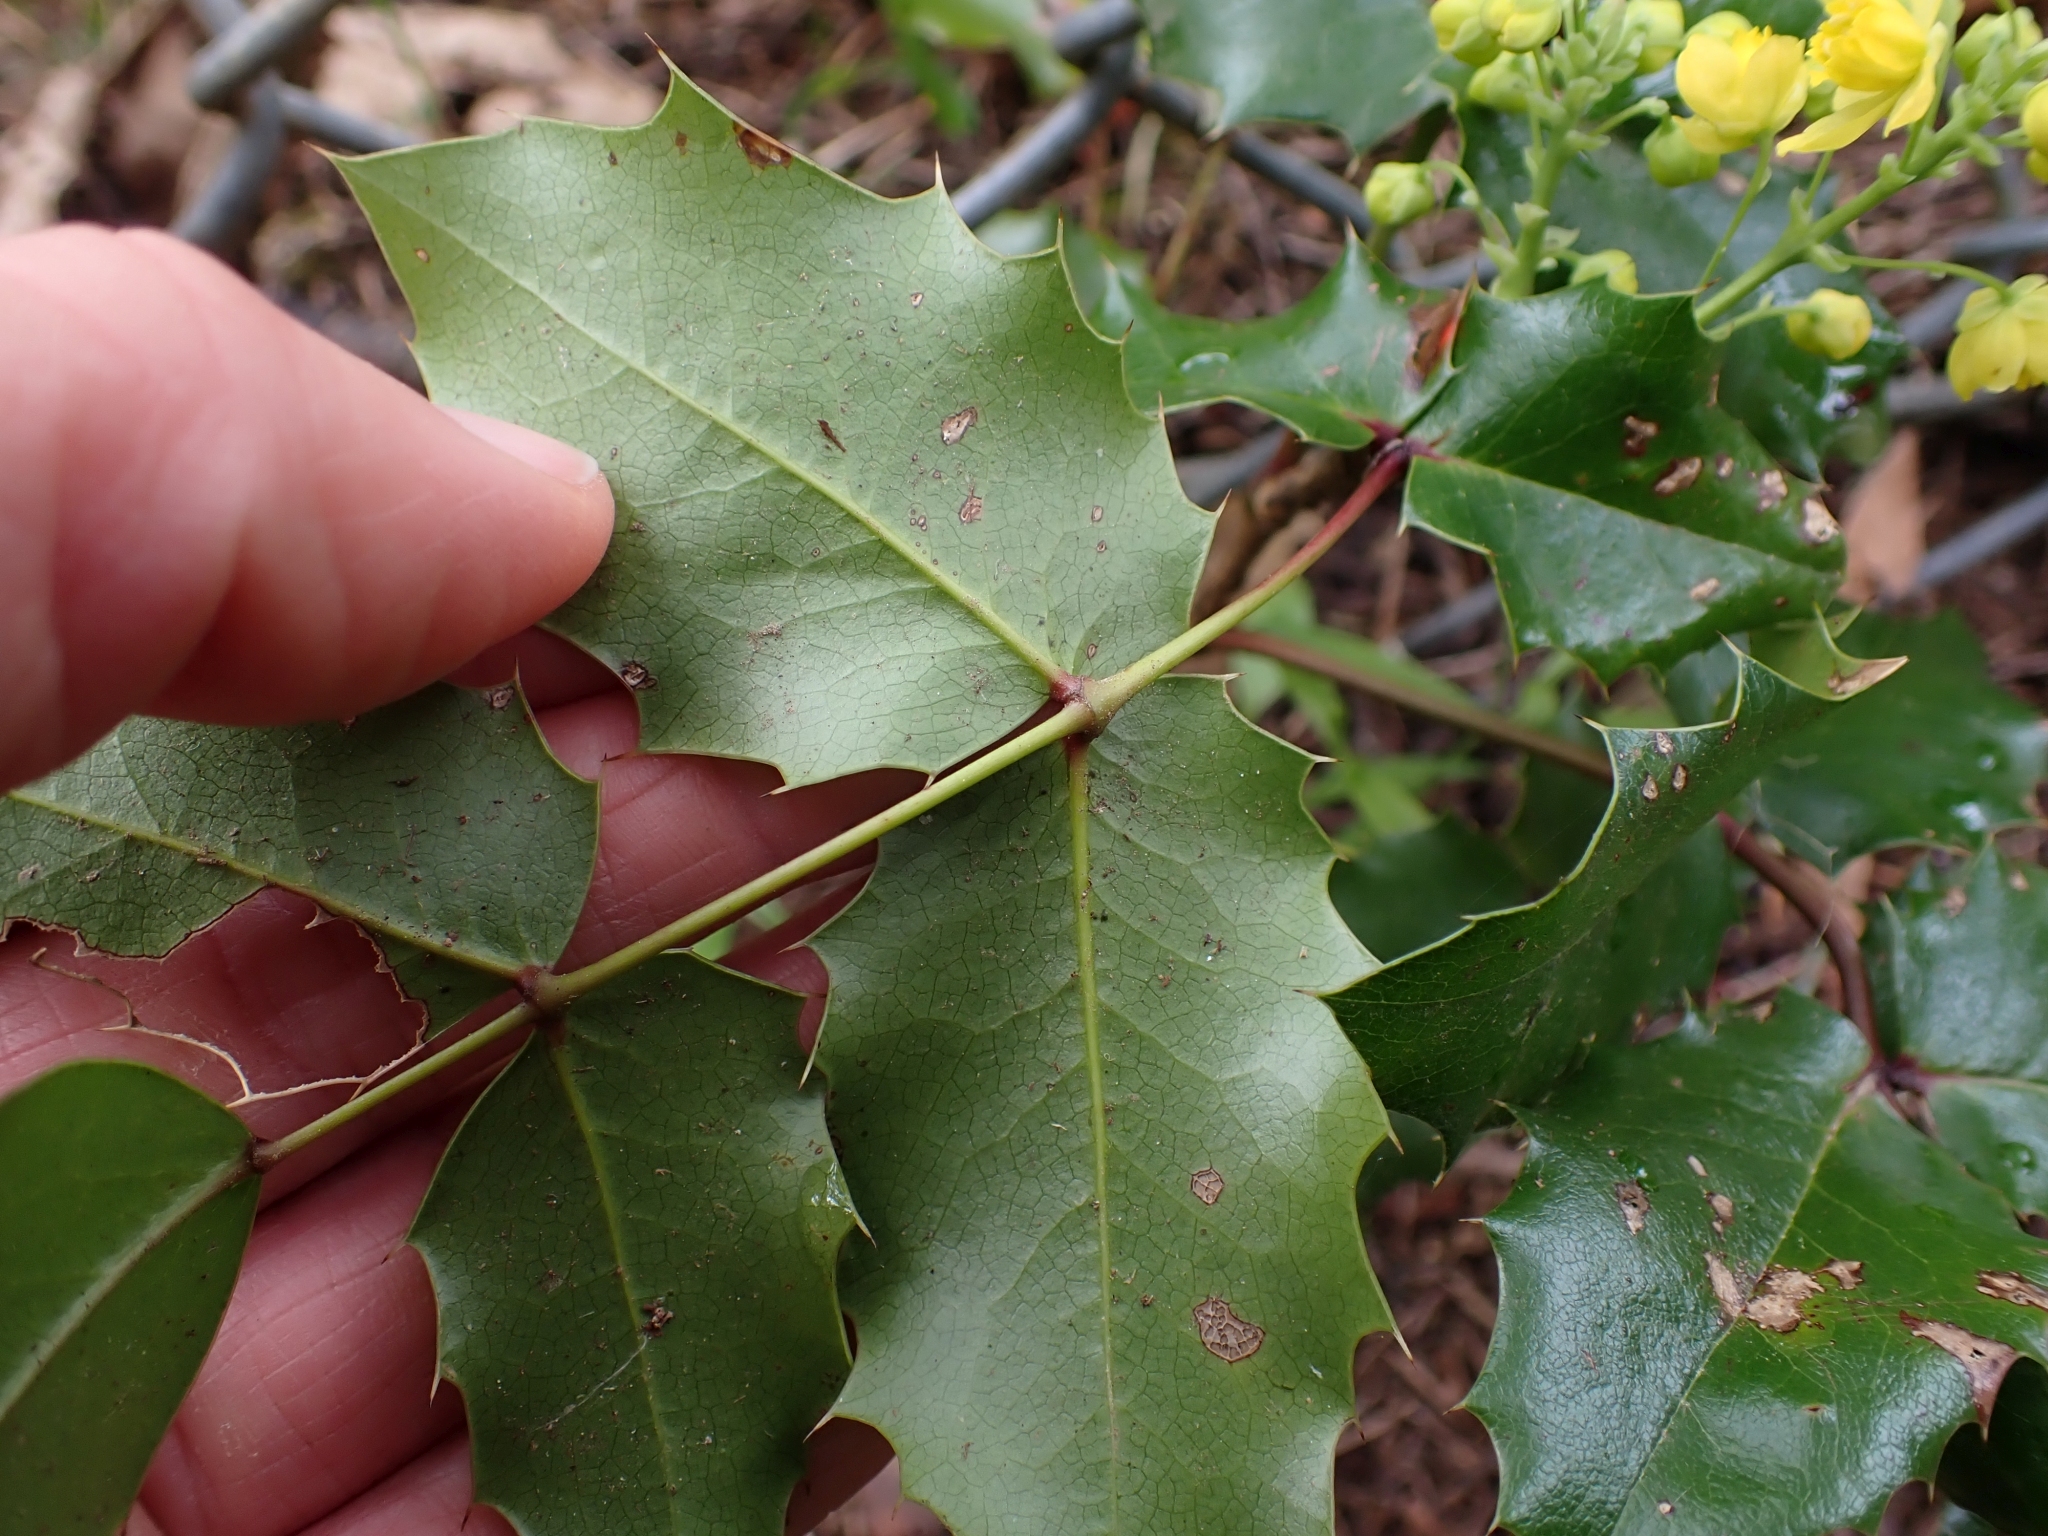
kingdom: Plantae
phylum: Tracheophyta
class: Magnoliopsida
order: Ranunculales
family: Berberidaceae
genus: Mahonia
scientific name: Mahonia aquifolium
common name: Oregon-grape
